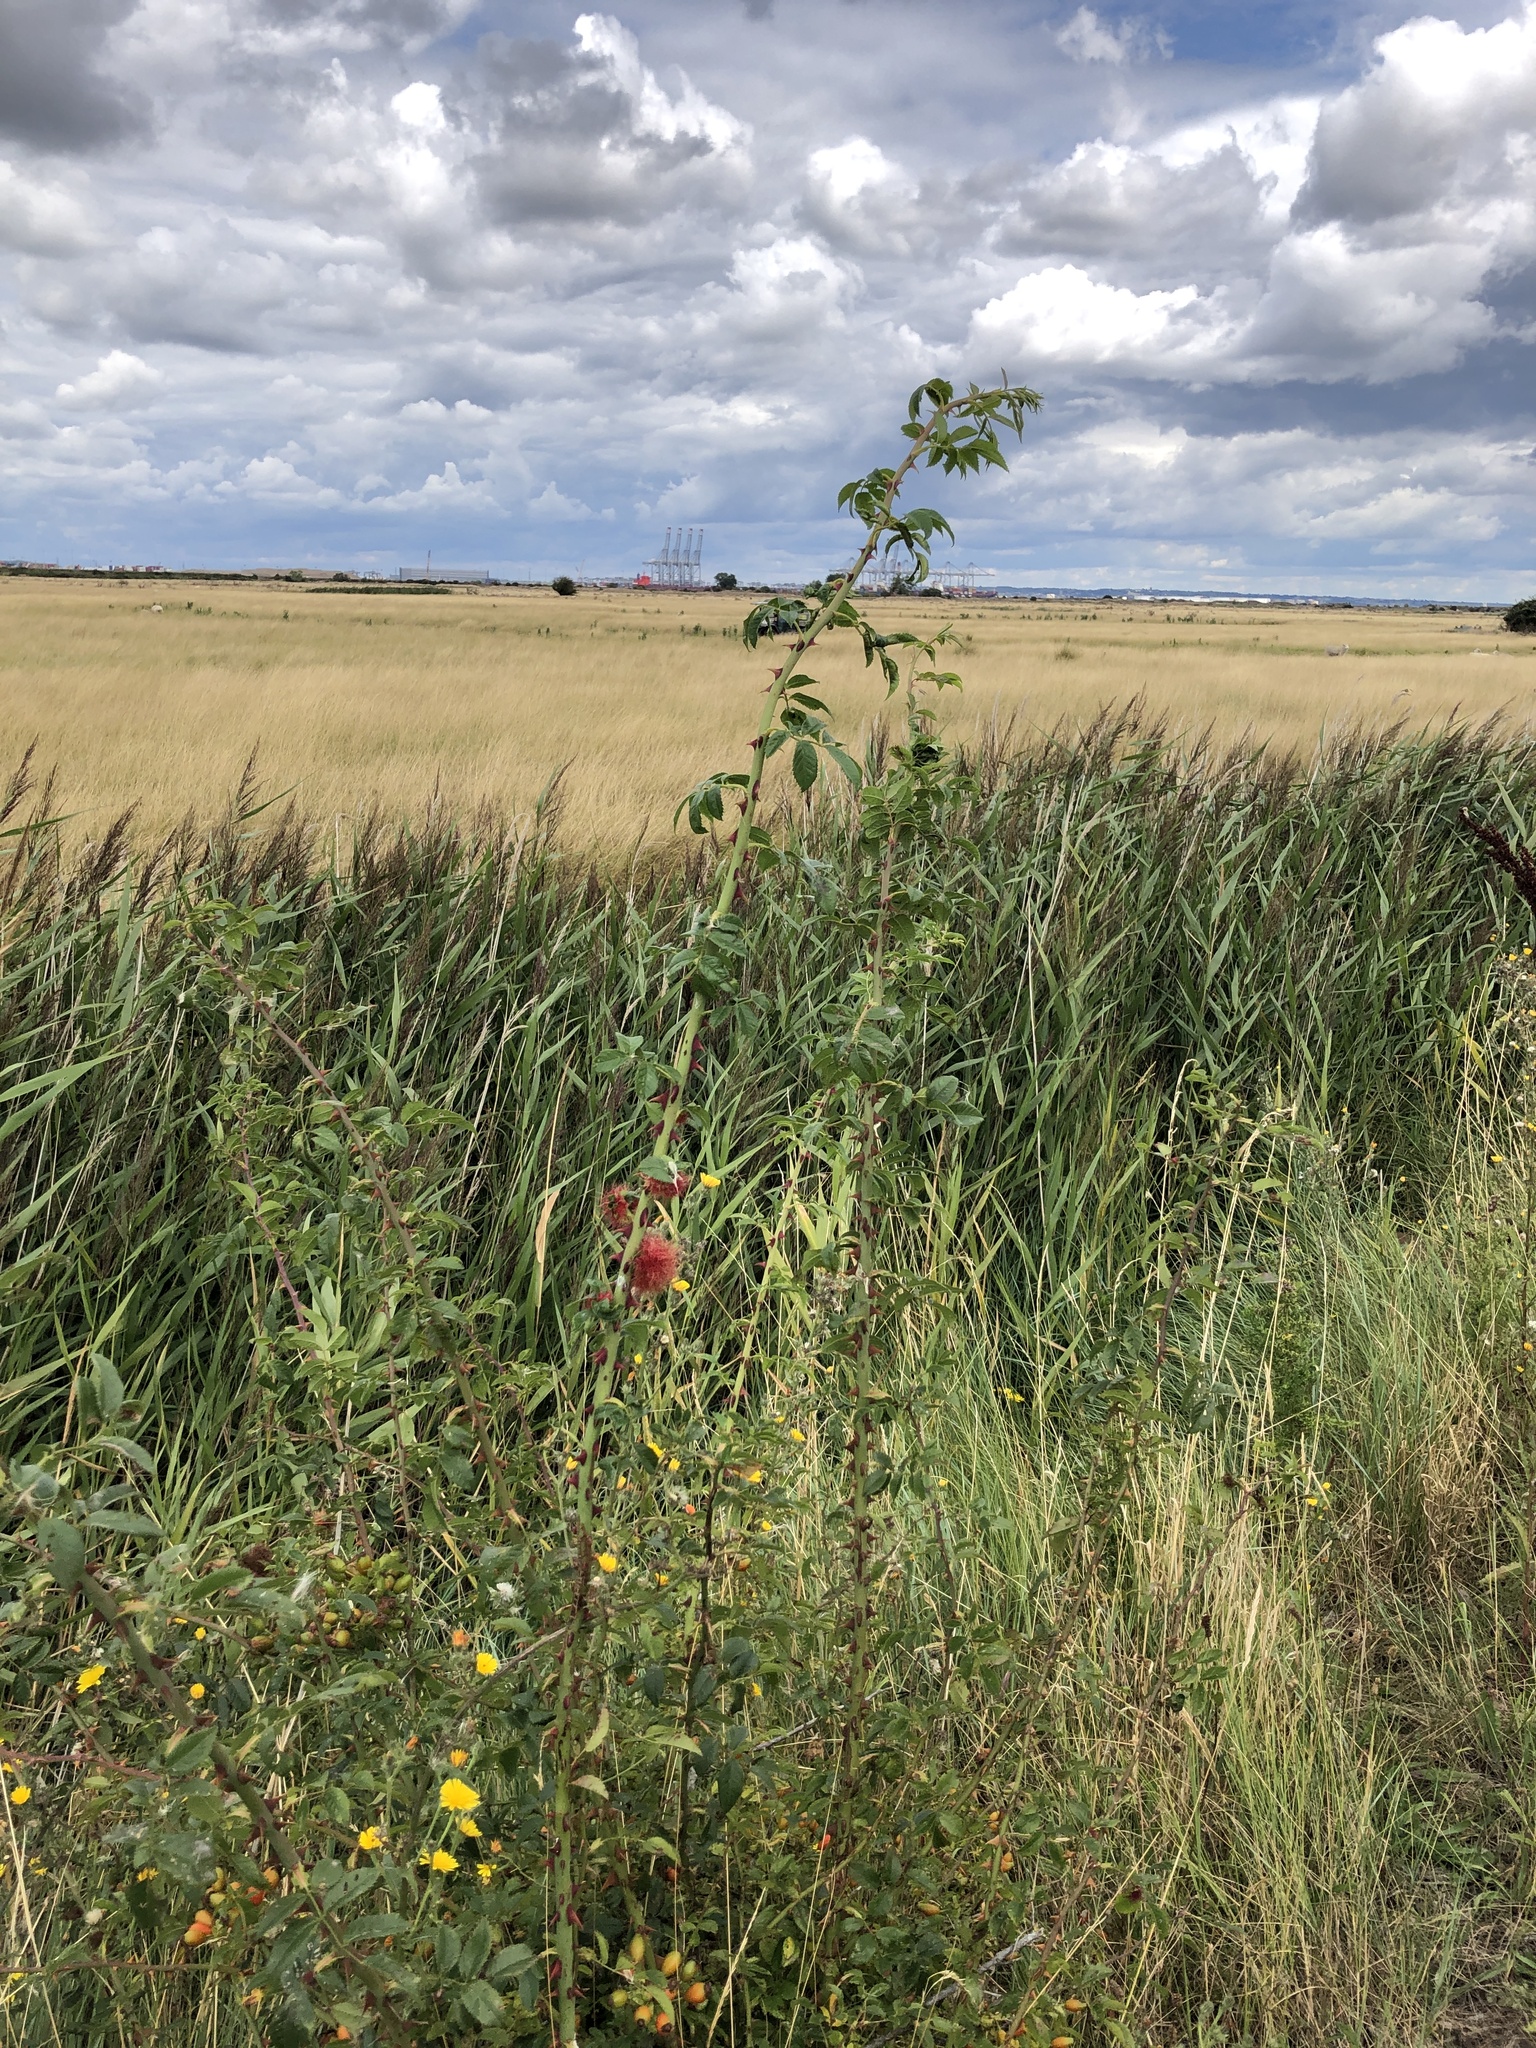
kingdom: Animalia
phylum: Arthropoda
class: Insecta
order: Hymenoptera
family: Cynipidae
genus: Diplolepis
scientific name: Diplolepis rosae
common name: Bedeguar gall
